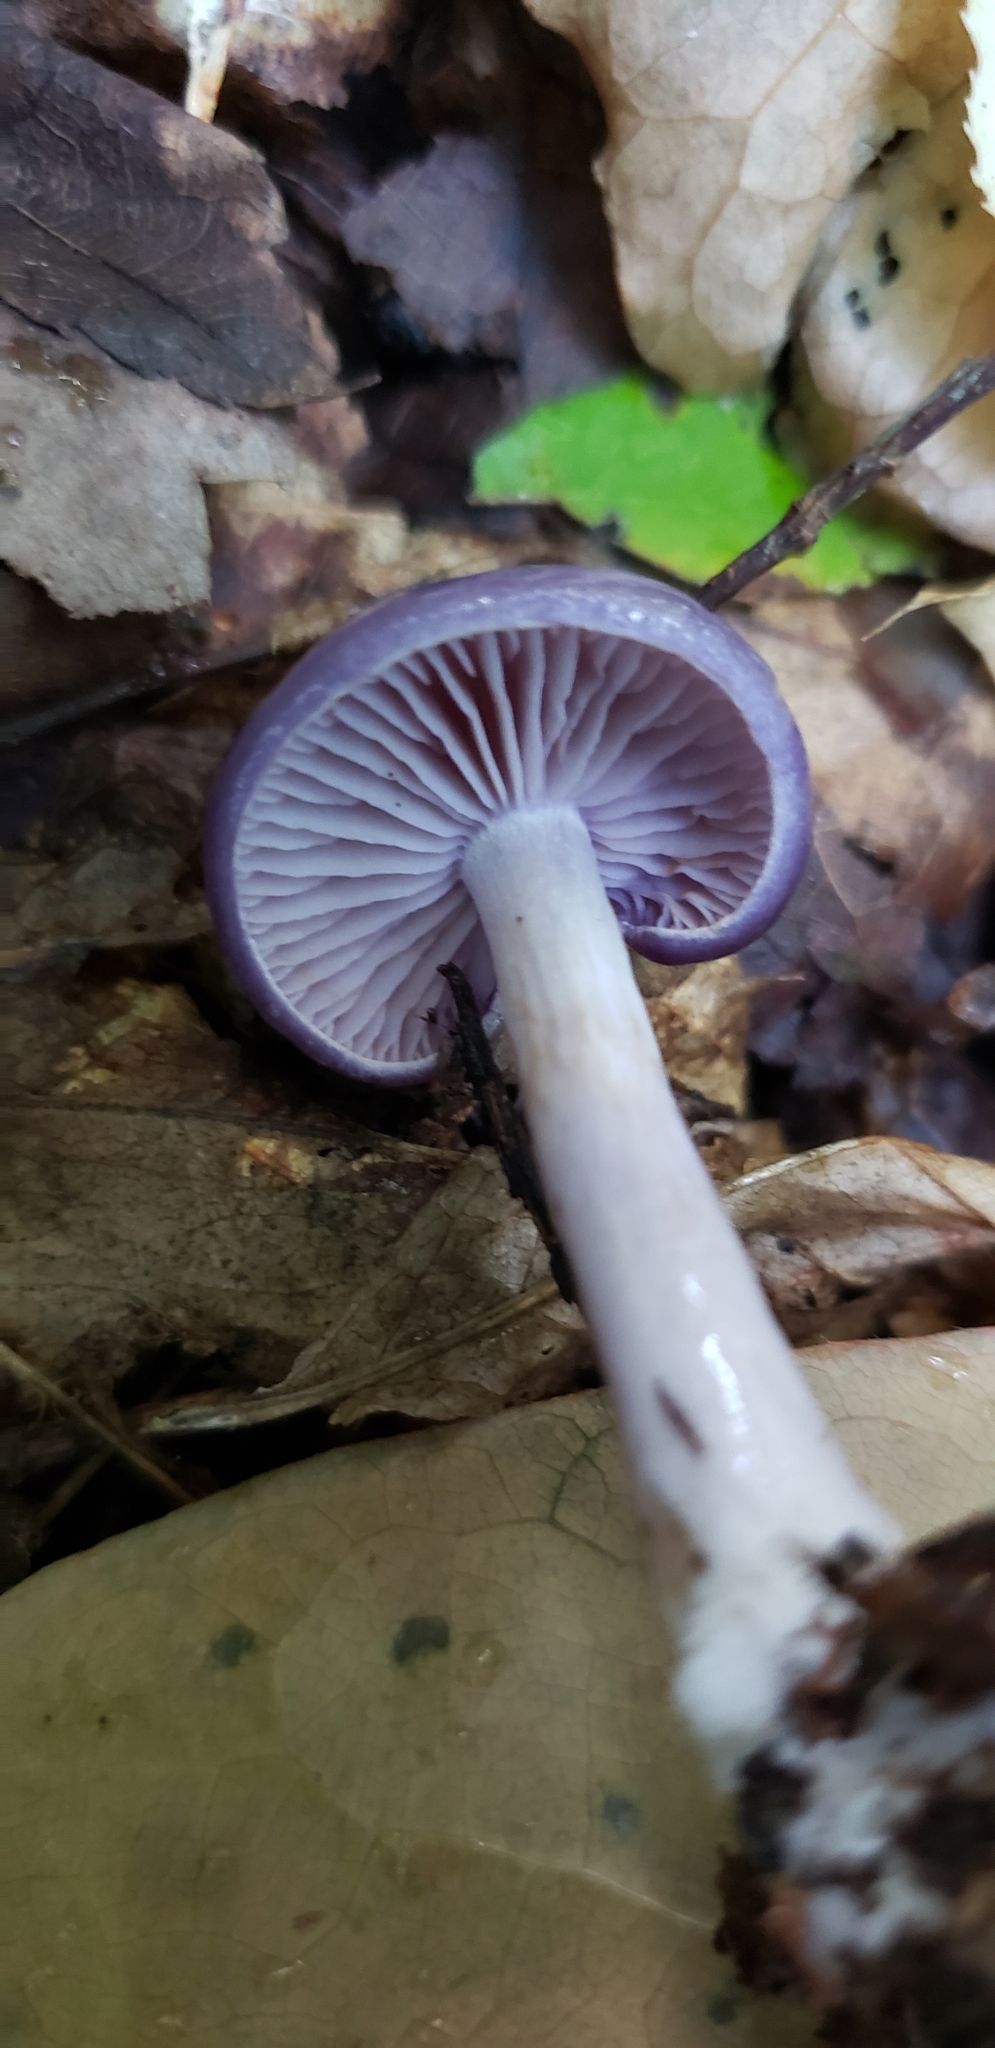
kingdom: Fungi
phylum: Basidiomycota
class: Agaricomycetes
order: Agaricales
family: Cortinariaceae
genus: Cortinarius
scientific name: Cortinarius iodes
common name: Viscid violet cort
